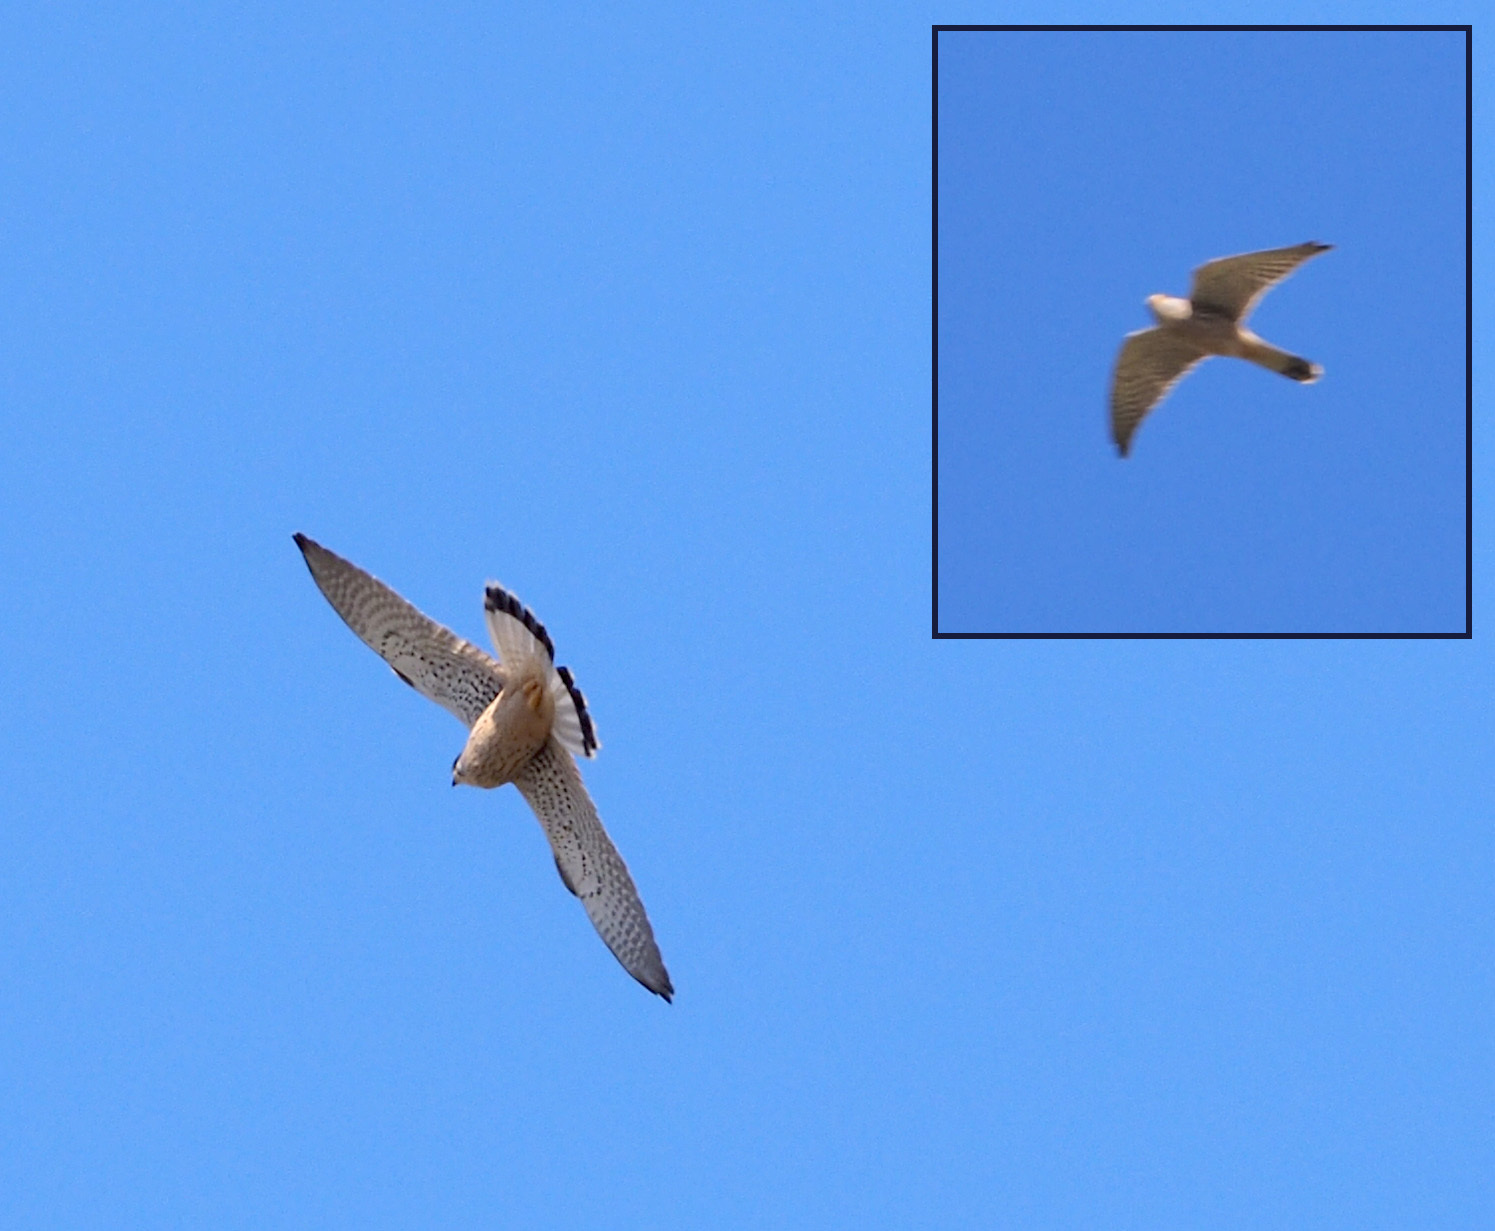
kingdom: Animalia
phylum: Chordata
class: Aves
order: Falconiformes
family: Falconidae
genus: Falco
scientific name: Falco tinnunculus
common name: Common kestrel
